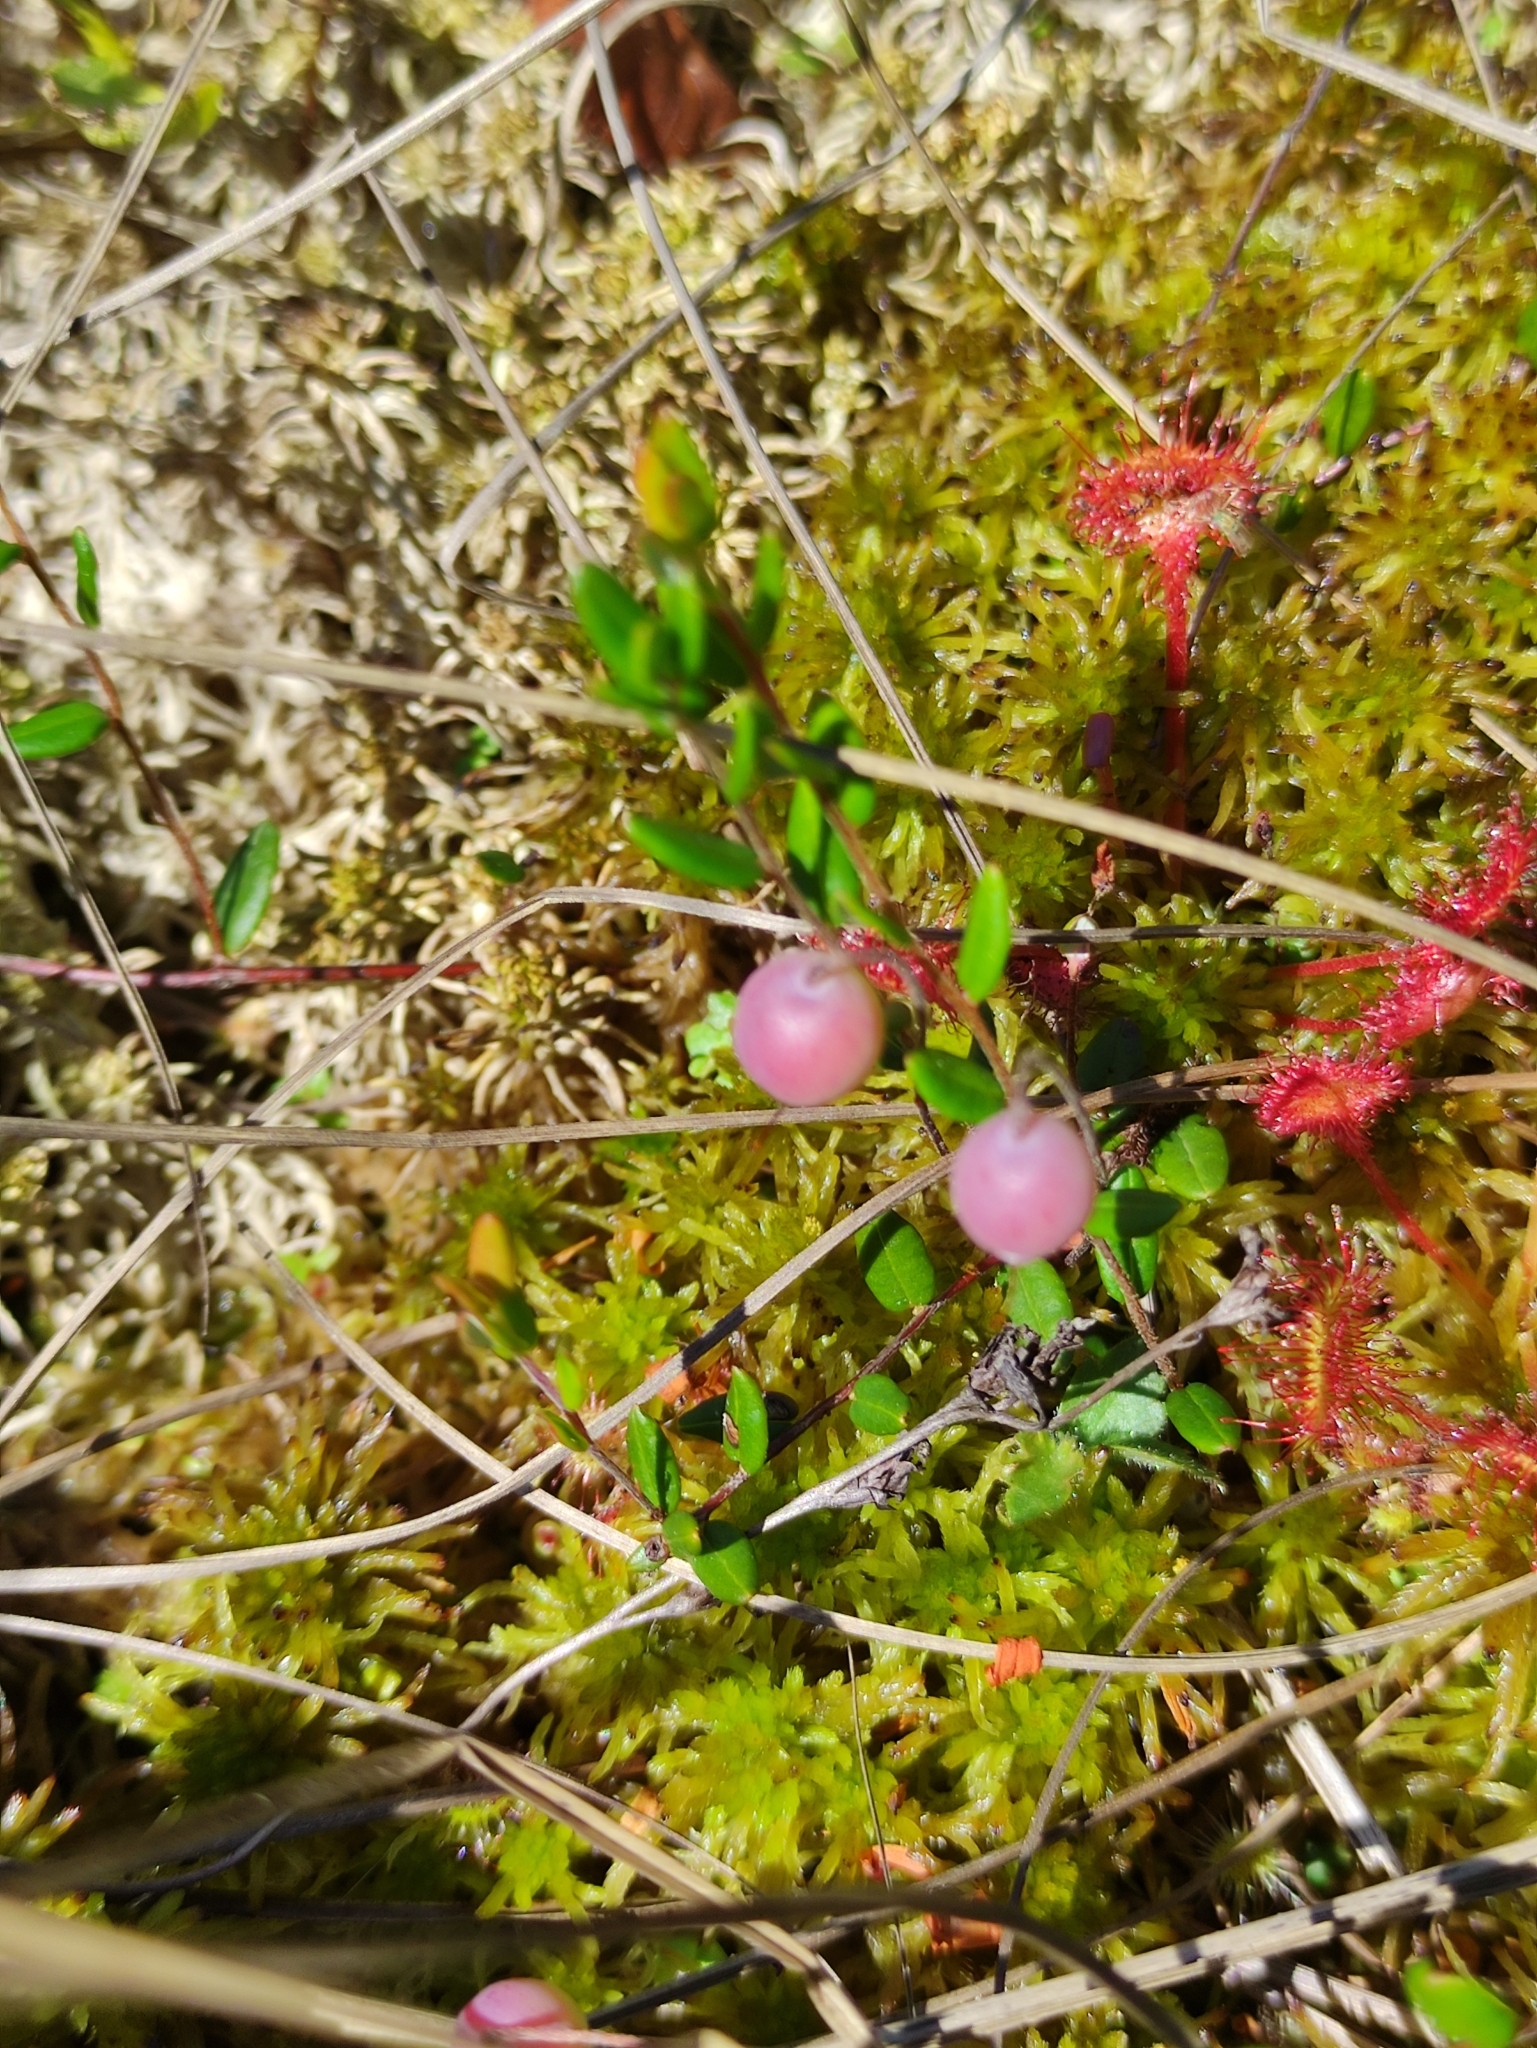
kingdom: Plantae
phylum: Tracheophyta
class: Magnoliopsida
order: Ericales
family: Ericaceae
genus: Vaccinium
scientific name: Vaccinium oxycoccos
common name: Cranberry
